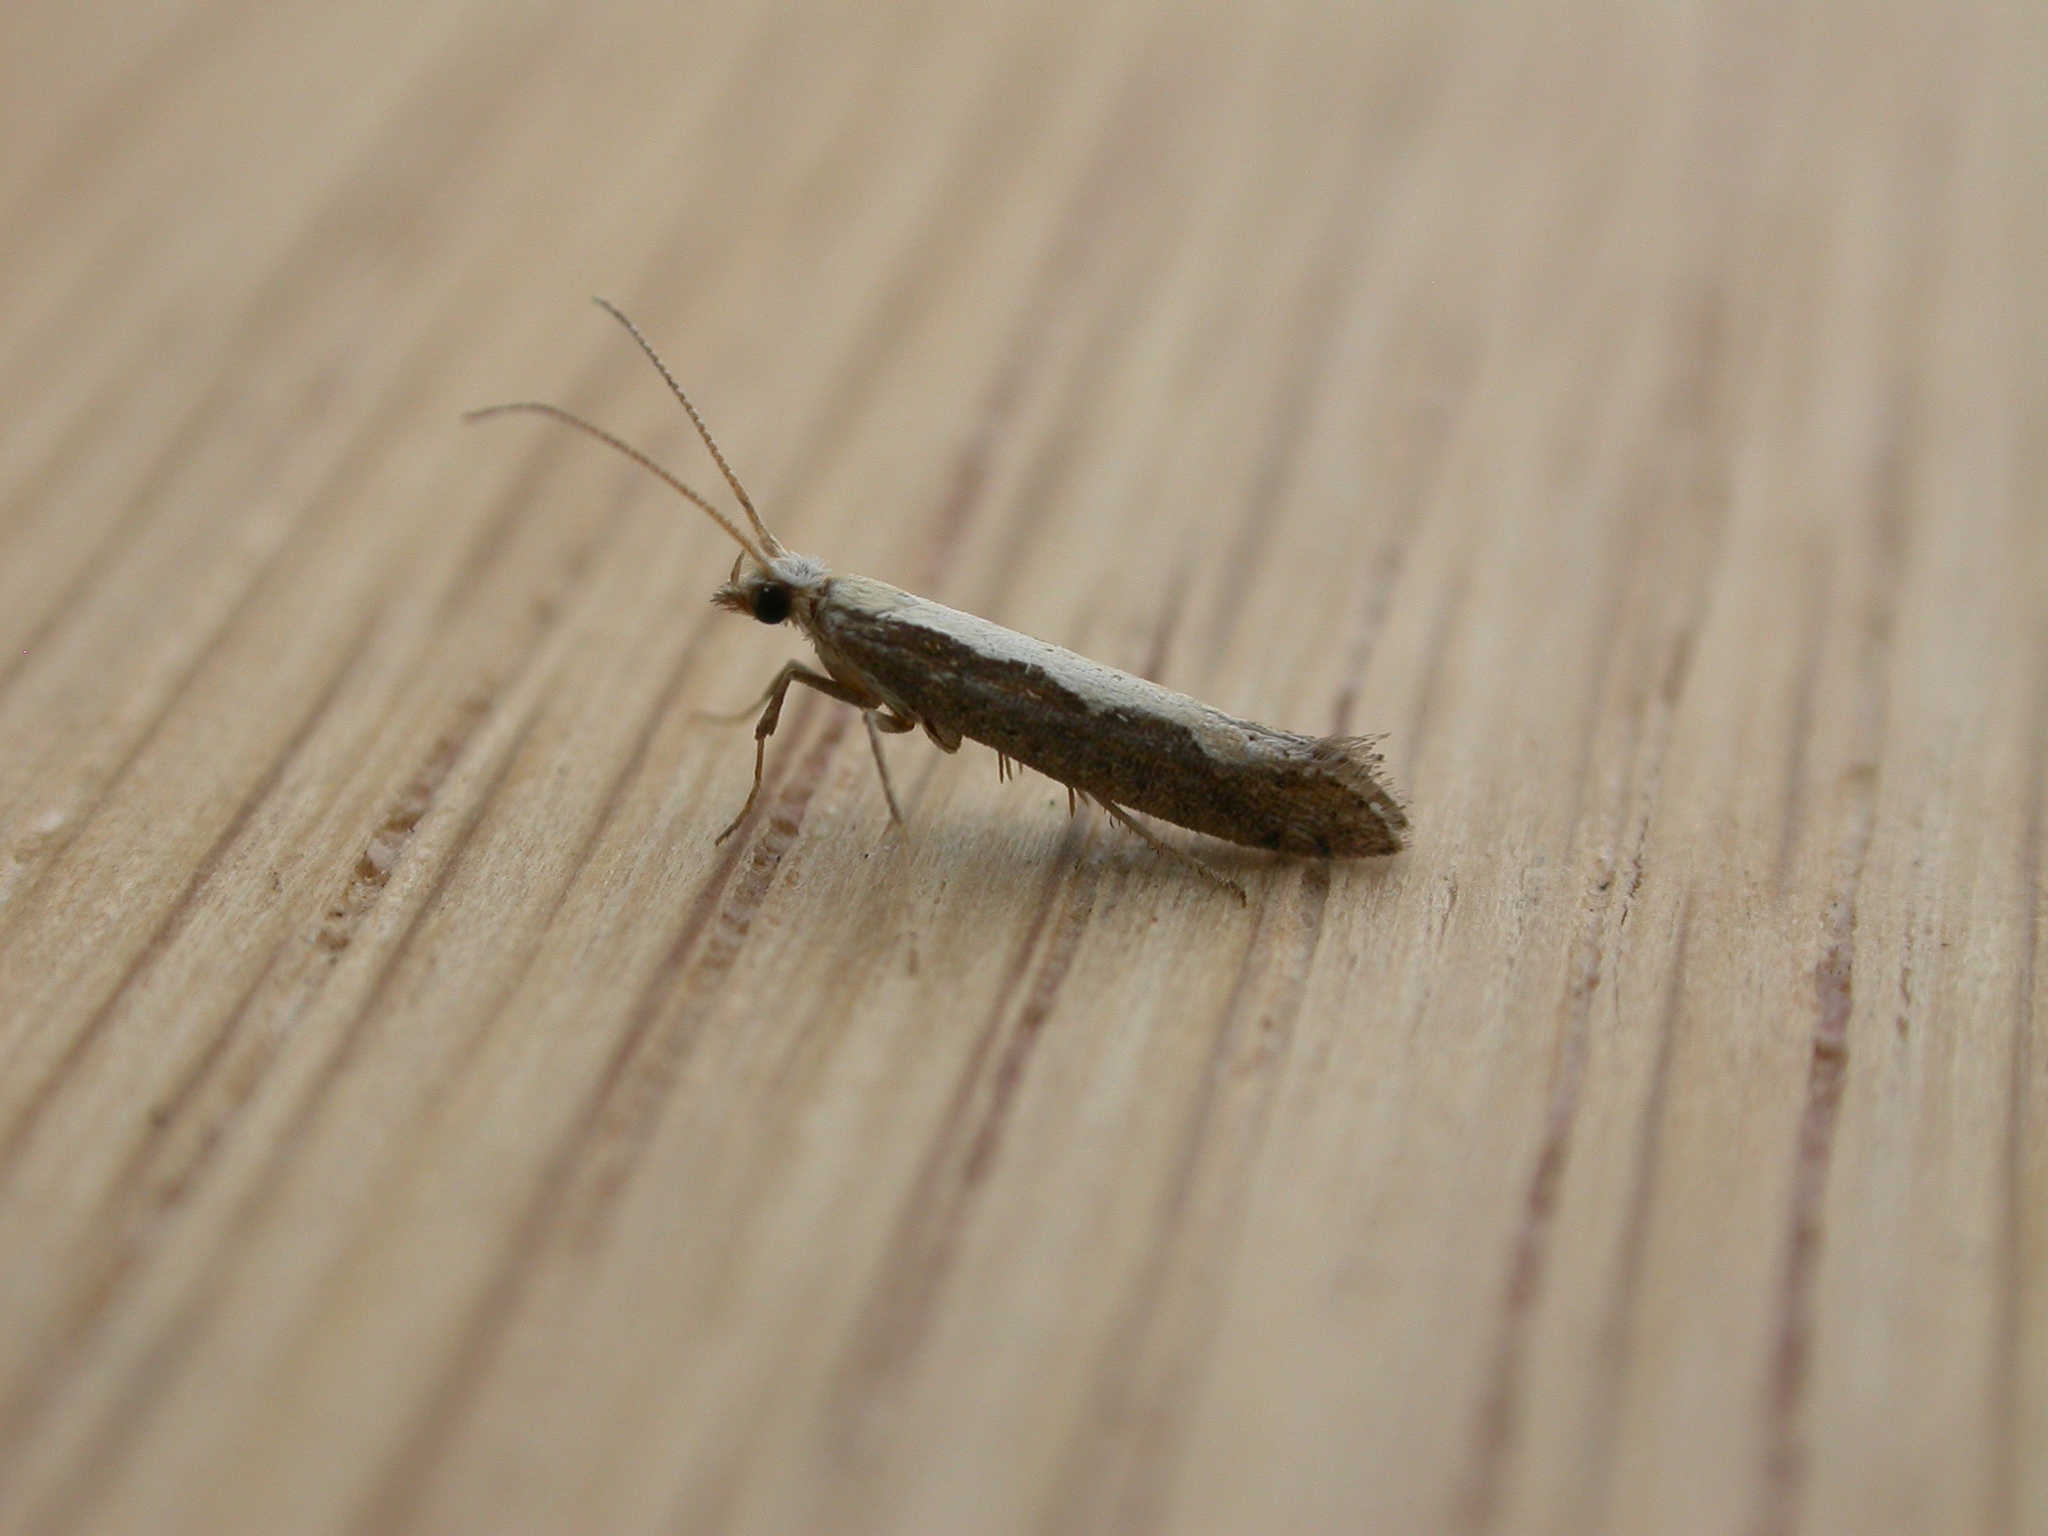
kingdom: Animalia
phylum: Arthropoda
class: Insecta
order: Lepidoptera
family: Plutellidae
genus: Plutella
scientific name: Plutella xylostella
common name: Diamond-back moth
